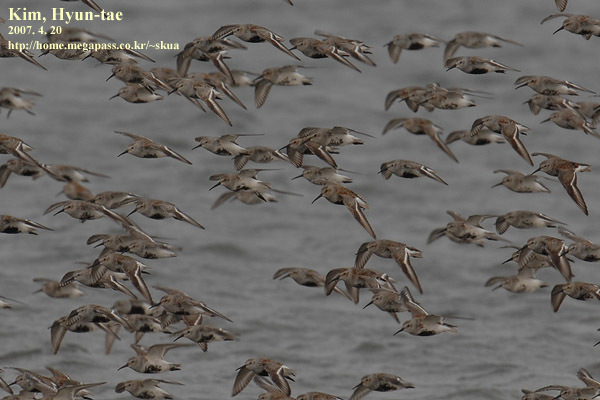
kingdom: Animalia
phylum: Chordata
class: Aves
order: Charadriiformes
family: Scolopacidae
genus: Calidris
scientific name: Calidris alpina
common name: Dunlin
